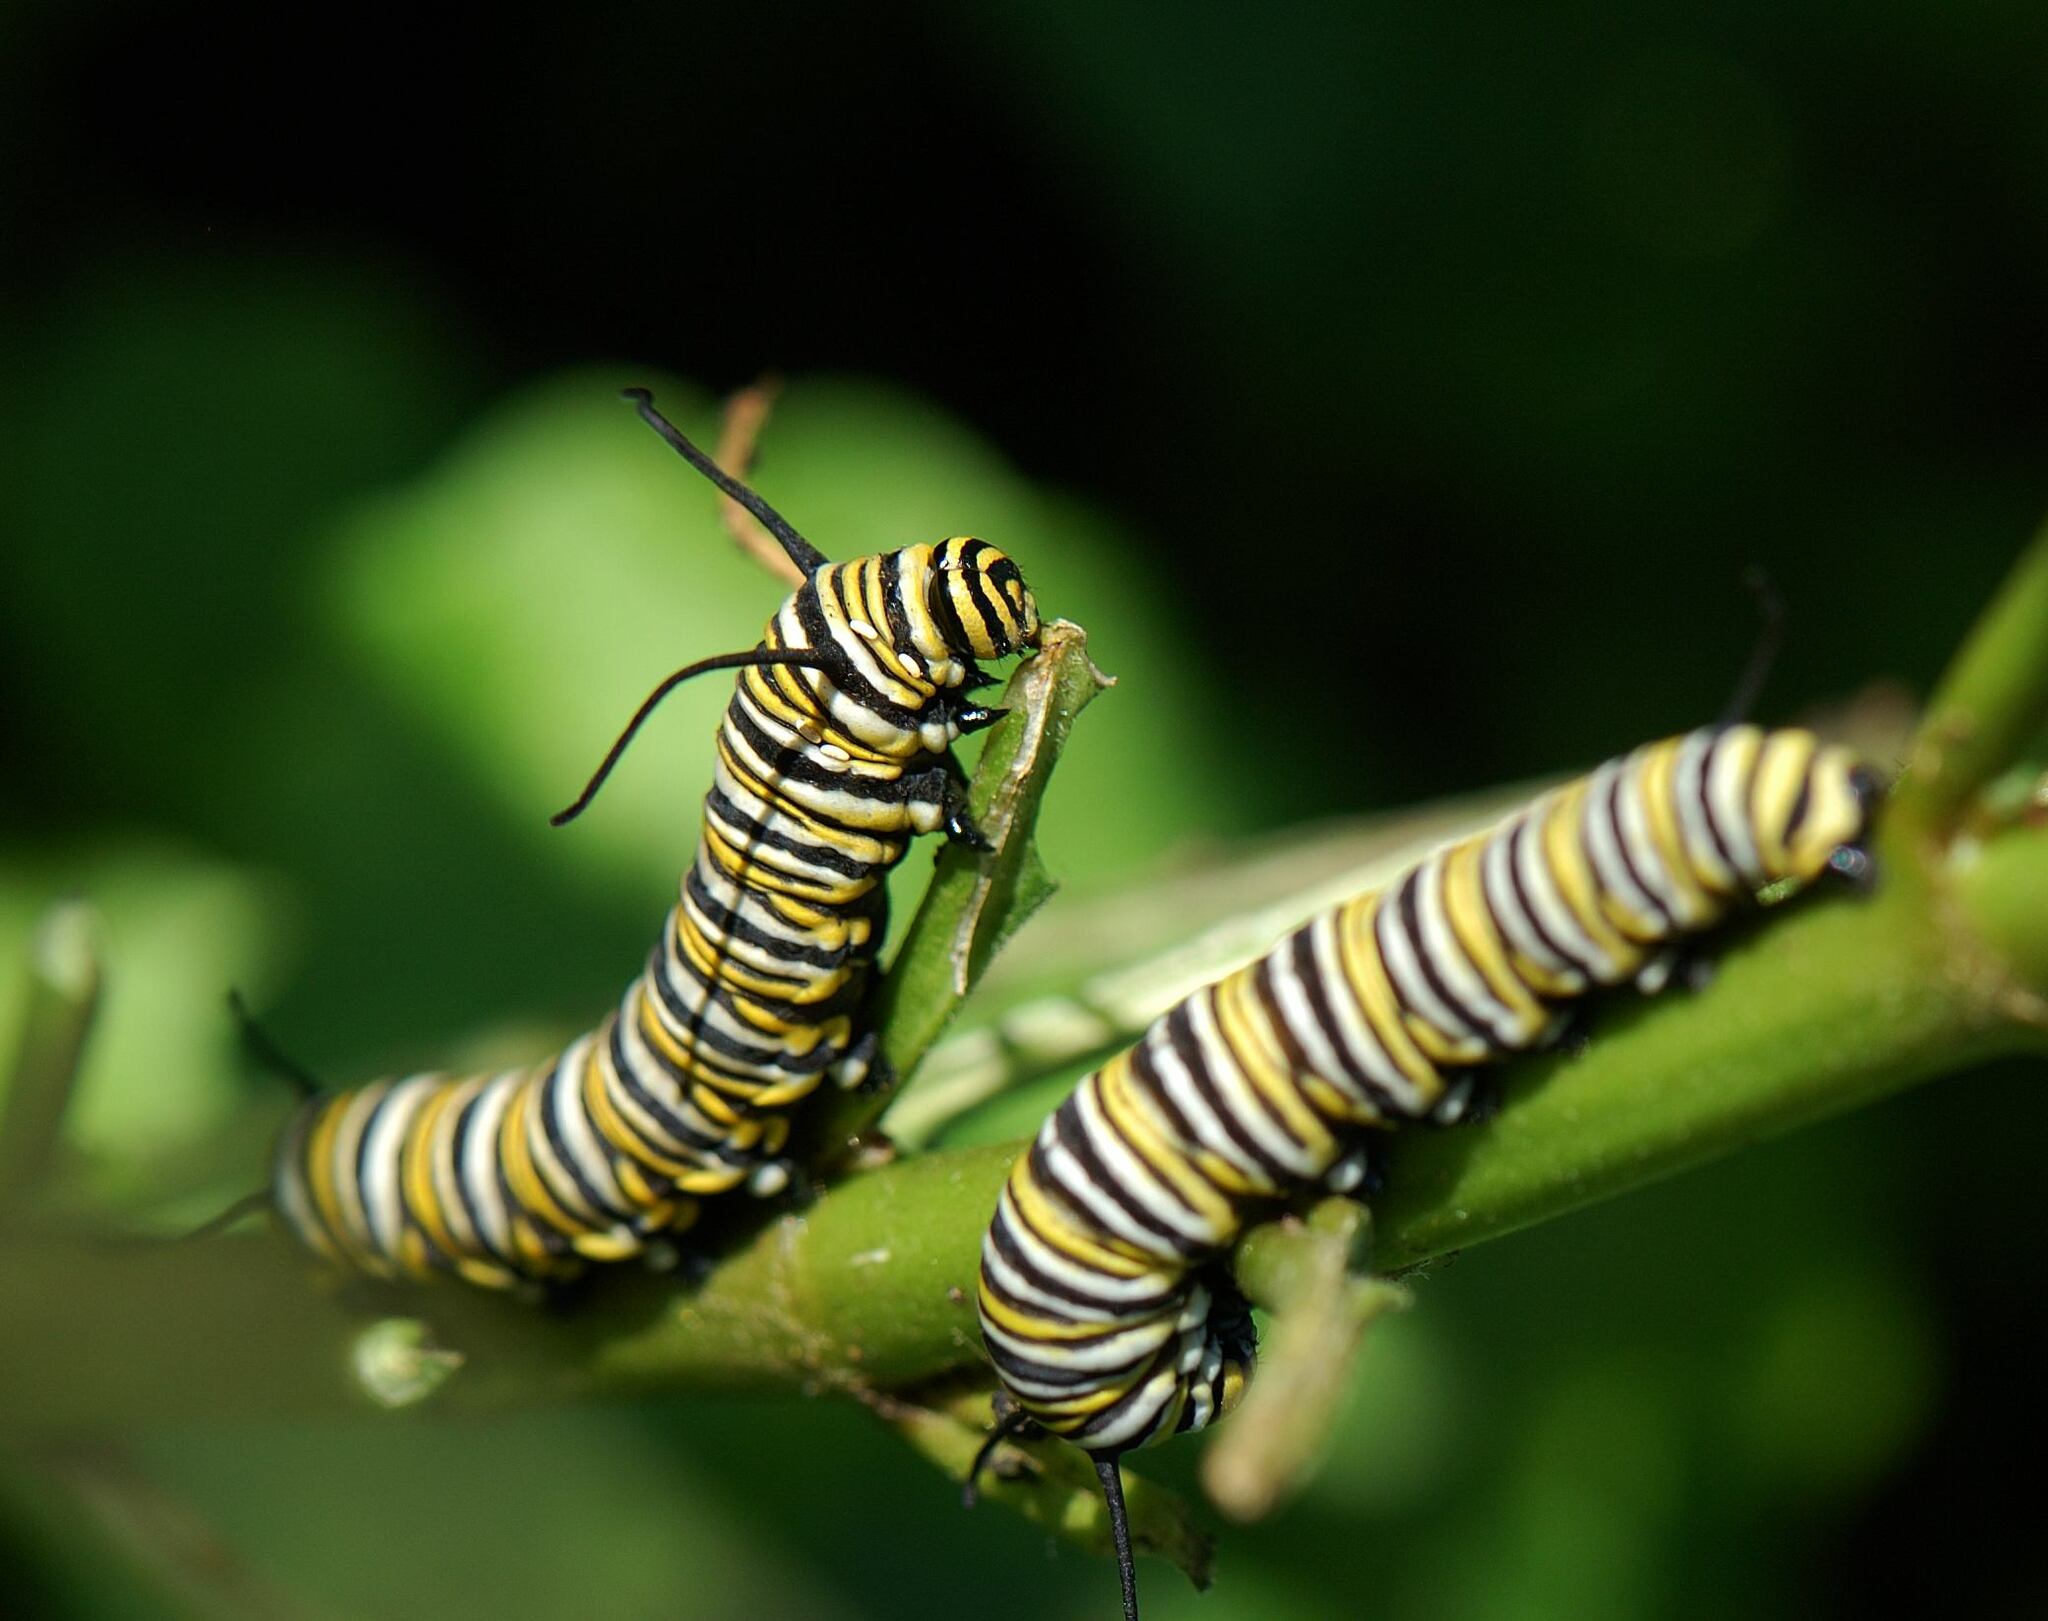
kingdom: Animalia
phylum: Arthropoda
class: Insecta
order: Lepidoptera
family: Nymphalidae
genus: Danaus
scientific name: Danaus plexippus
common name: Monarch
